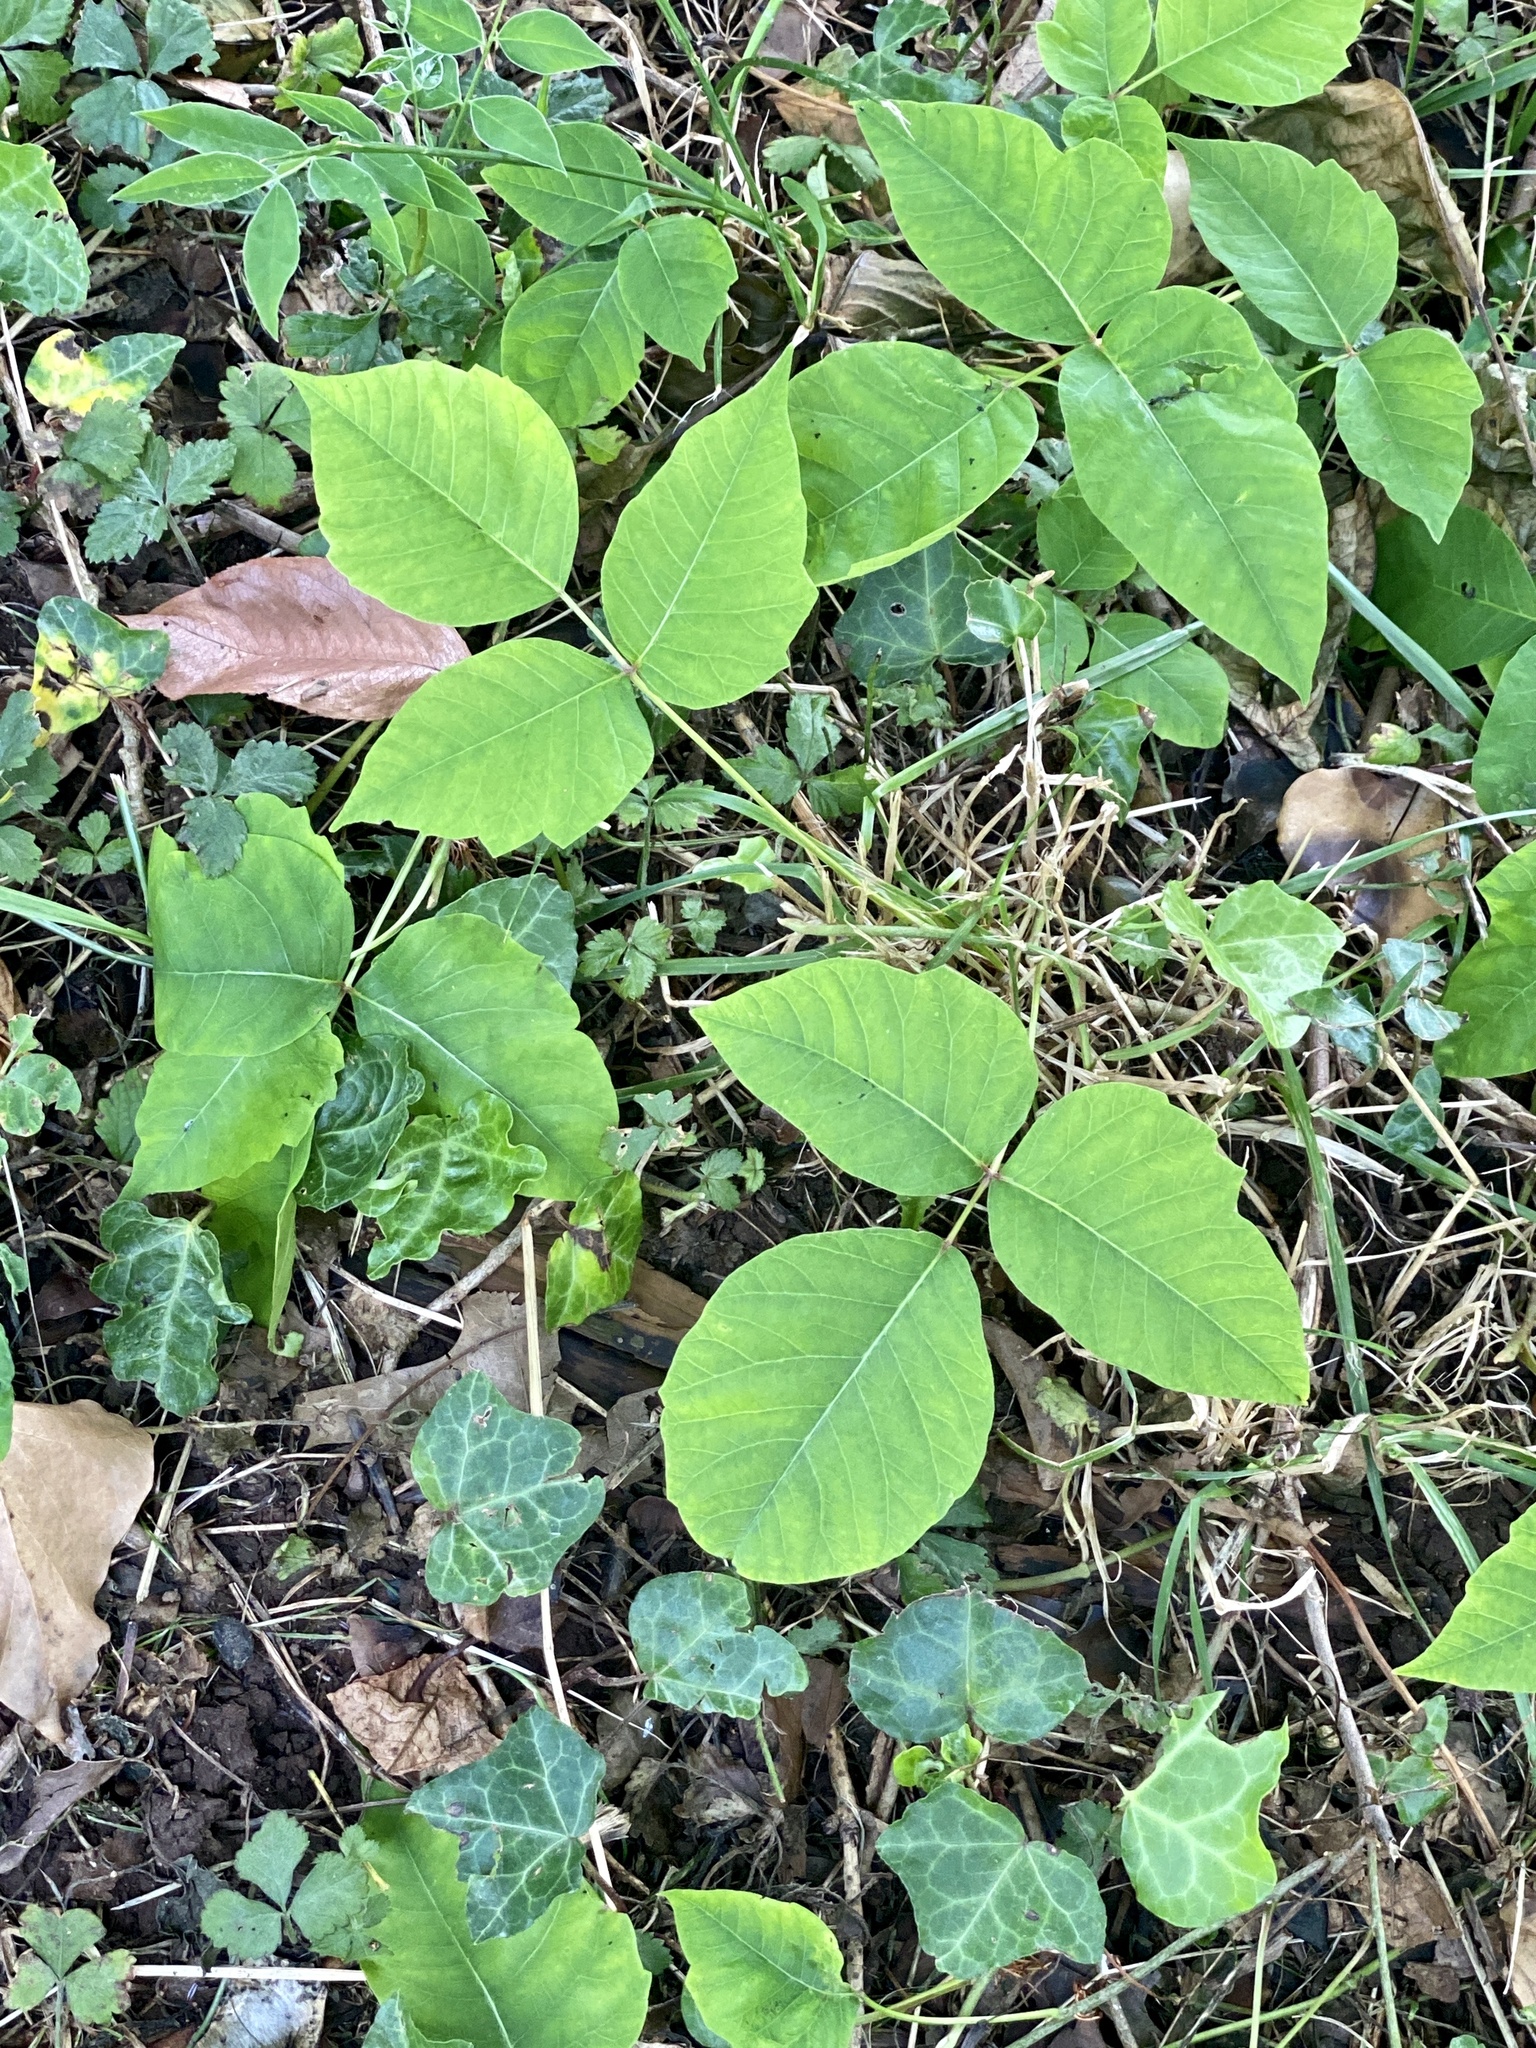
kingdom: Plantae
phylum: Tracheophyta
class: Magnoliopsida
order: Sapindales
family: Anacardiaceae
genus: Toxicodendron
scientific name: Toxicodendron radicans
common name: Poison ivy
